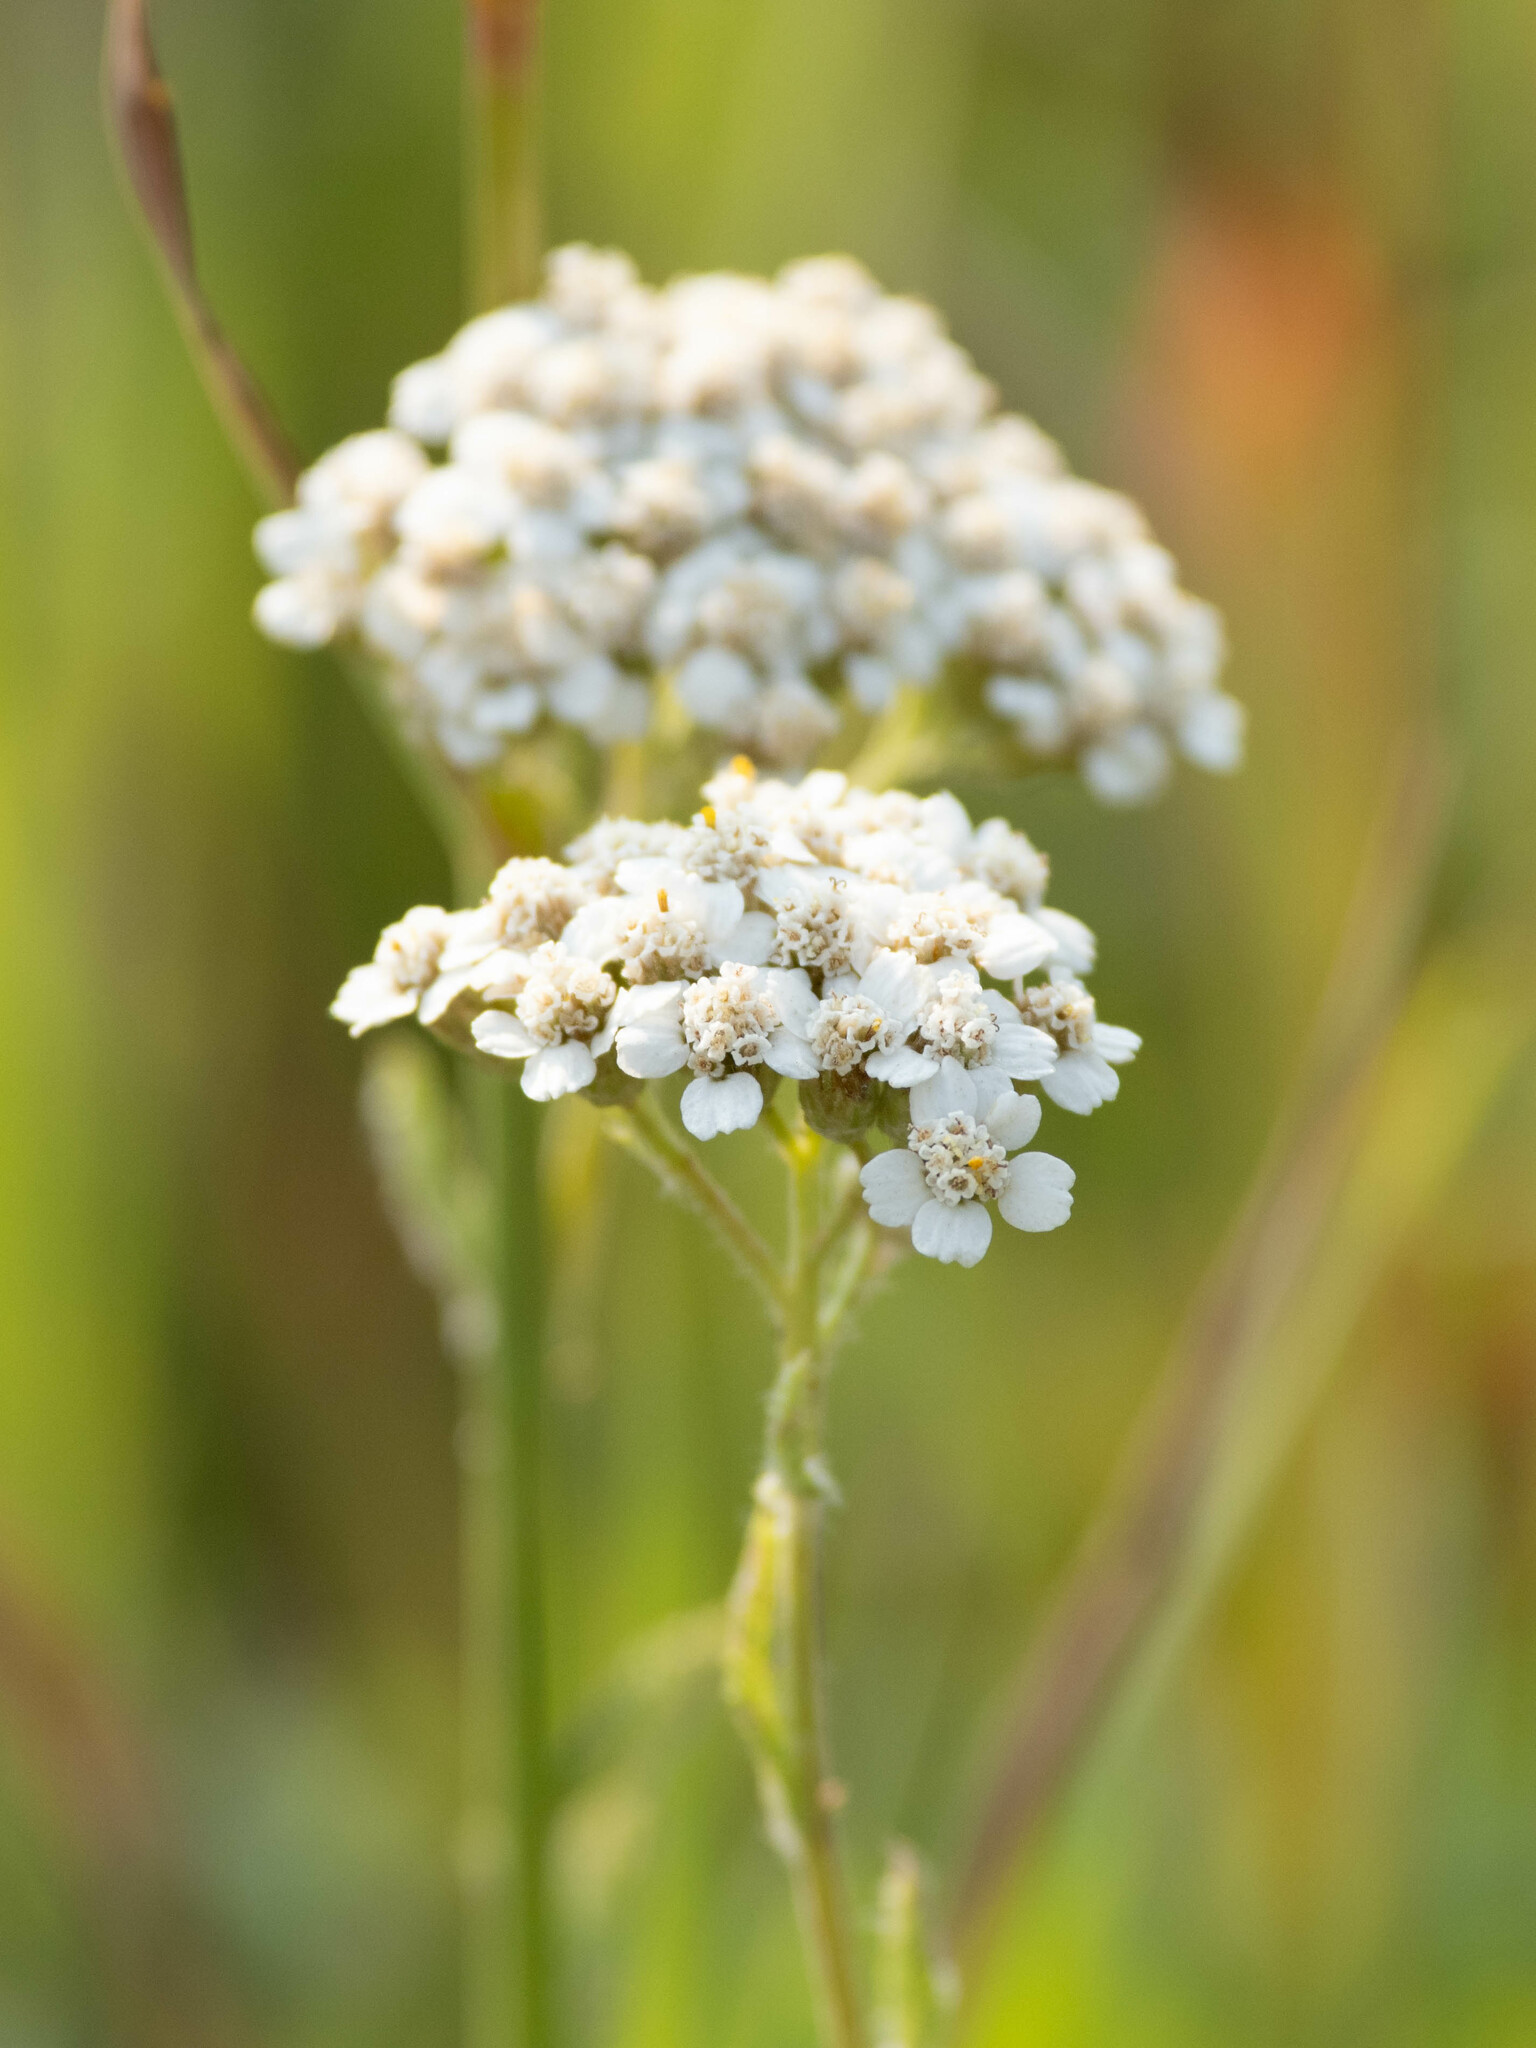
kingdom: Plantae
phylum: Tracheophyta
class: Magnoliopsida
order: Asterales
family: Asteraceae
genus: Achillea
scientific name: Achillea millefolium
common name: Yarrow
